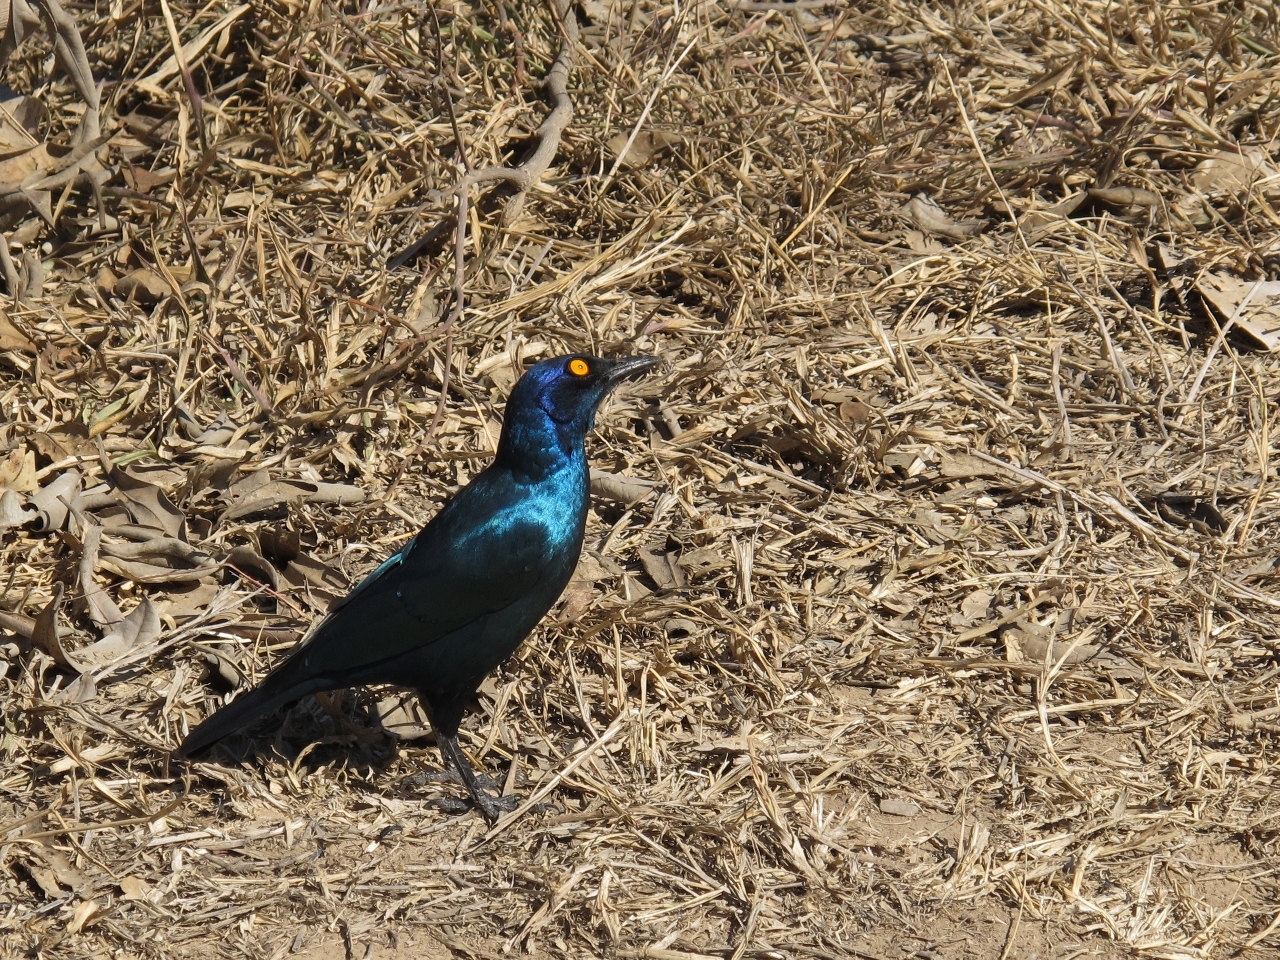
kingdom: Animalia
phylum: Chordata
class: Aves
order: Passeriformes
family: Sturnidae
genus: Lamprotornis
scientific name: Lamprotornis nitens
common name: Cape starling
